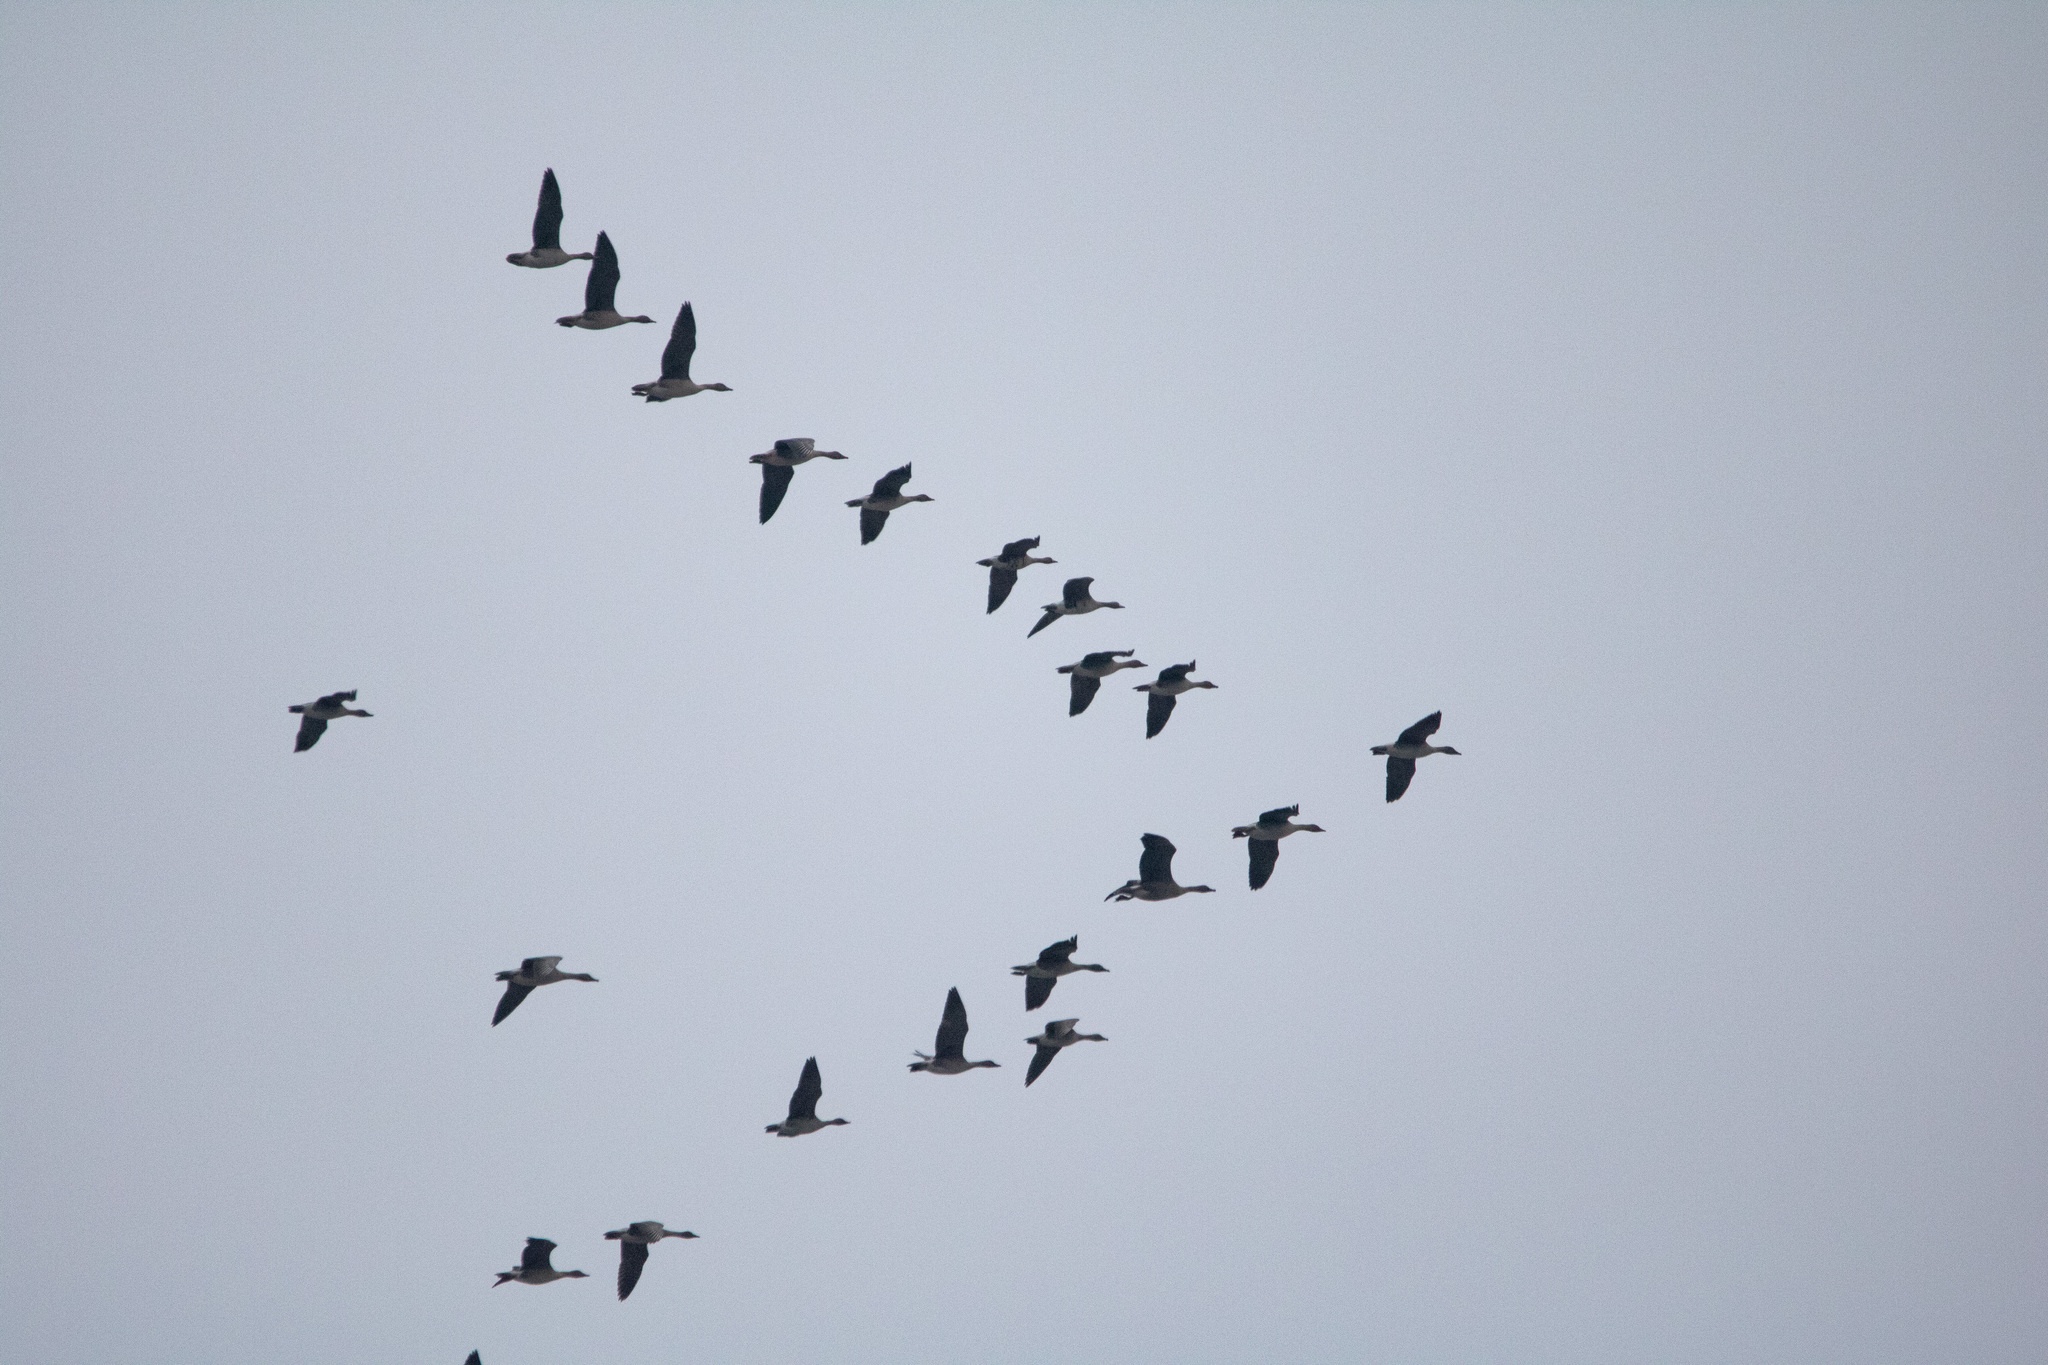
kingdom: Animalia
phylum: Chordata
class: Aves
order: Anseriformes
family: Anatidae
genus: Anser
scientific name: Anser fabalis
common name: Bean goose
